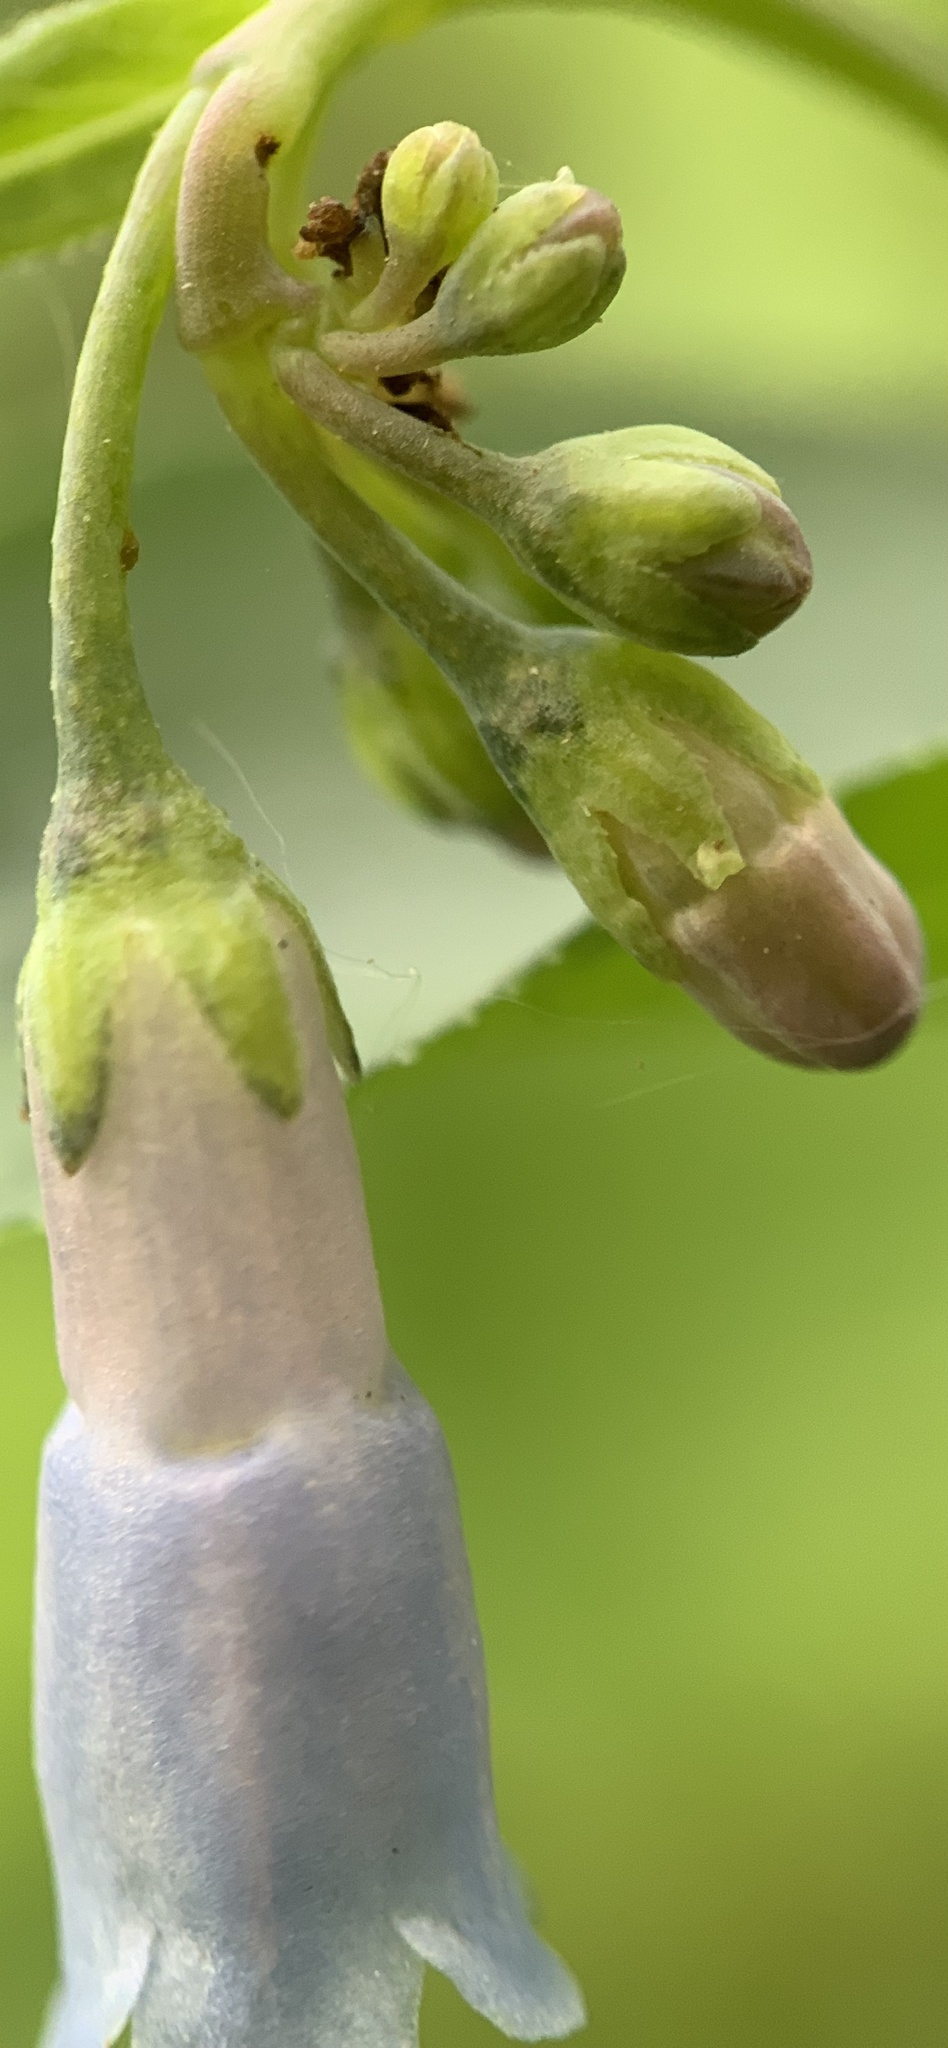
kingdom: Plantae
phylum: Tracheophyta
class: Magnoliopsida
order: Boraginales
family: Boraginaceae
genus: Mertensia
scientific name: Mertensia brachycalyx
